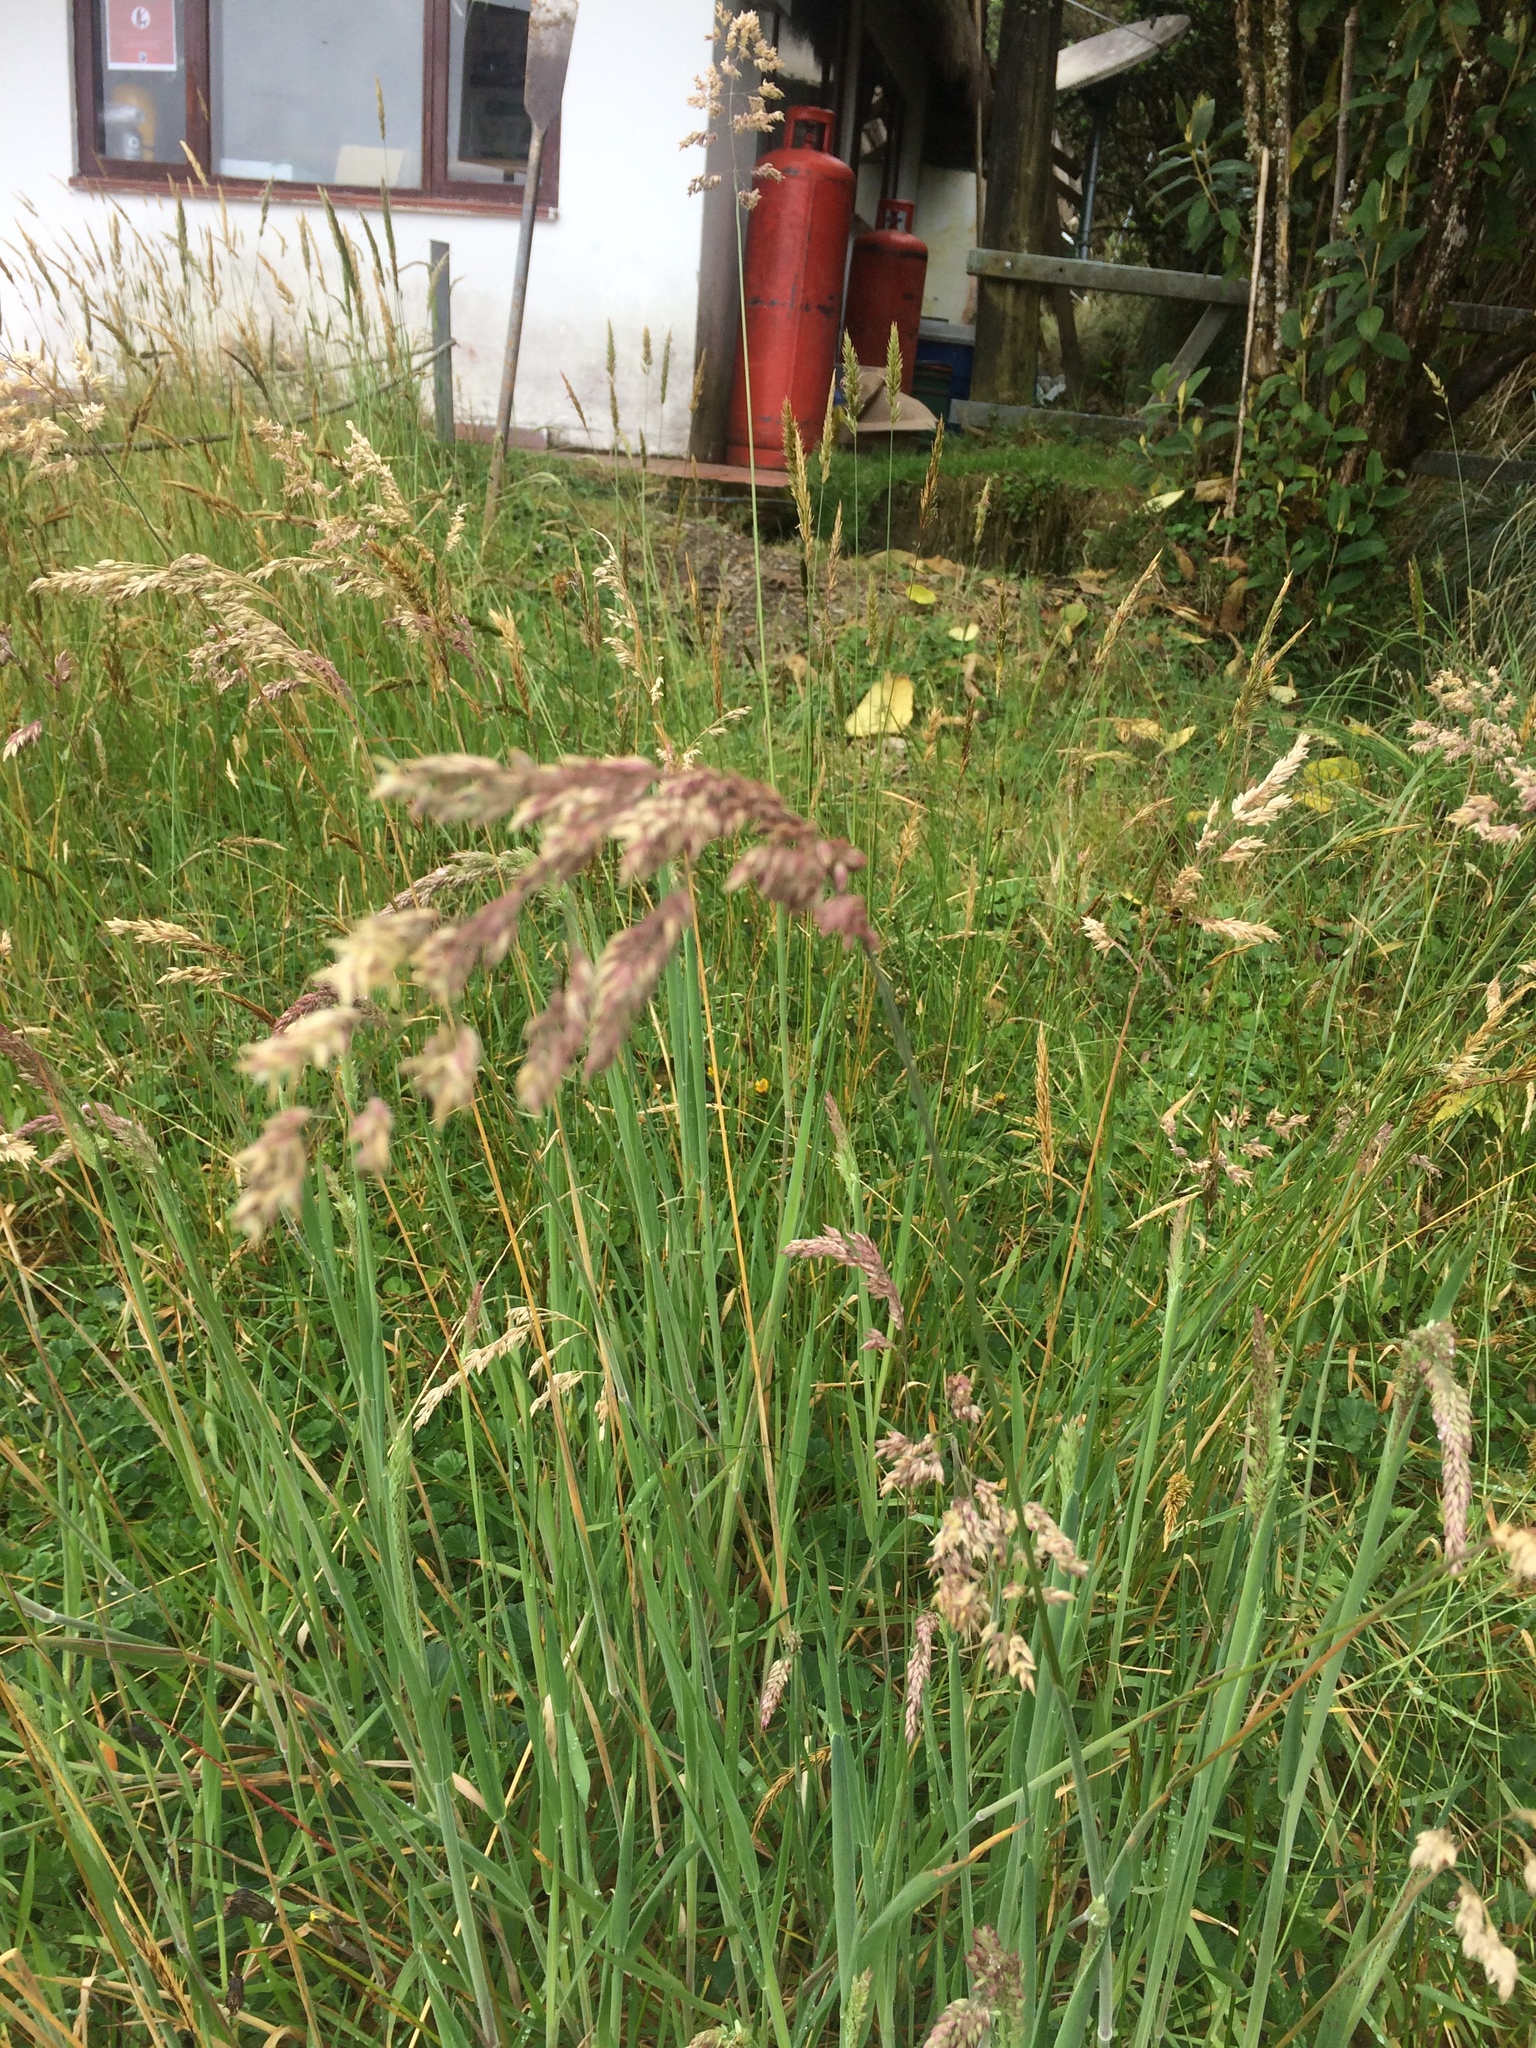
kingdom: Plantae
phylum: Tracheophyta
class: Liliopsida
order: Poales
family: Poaceae
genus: Holcus
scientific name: Holcus lanatus
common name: Yorkshire-fog
